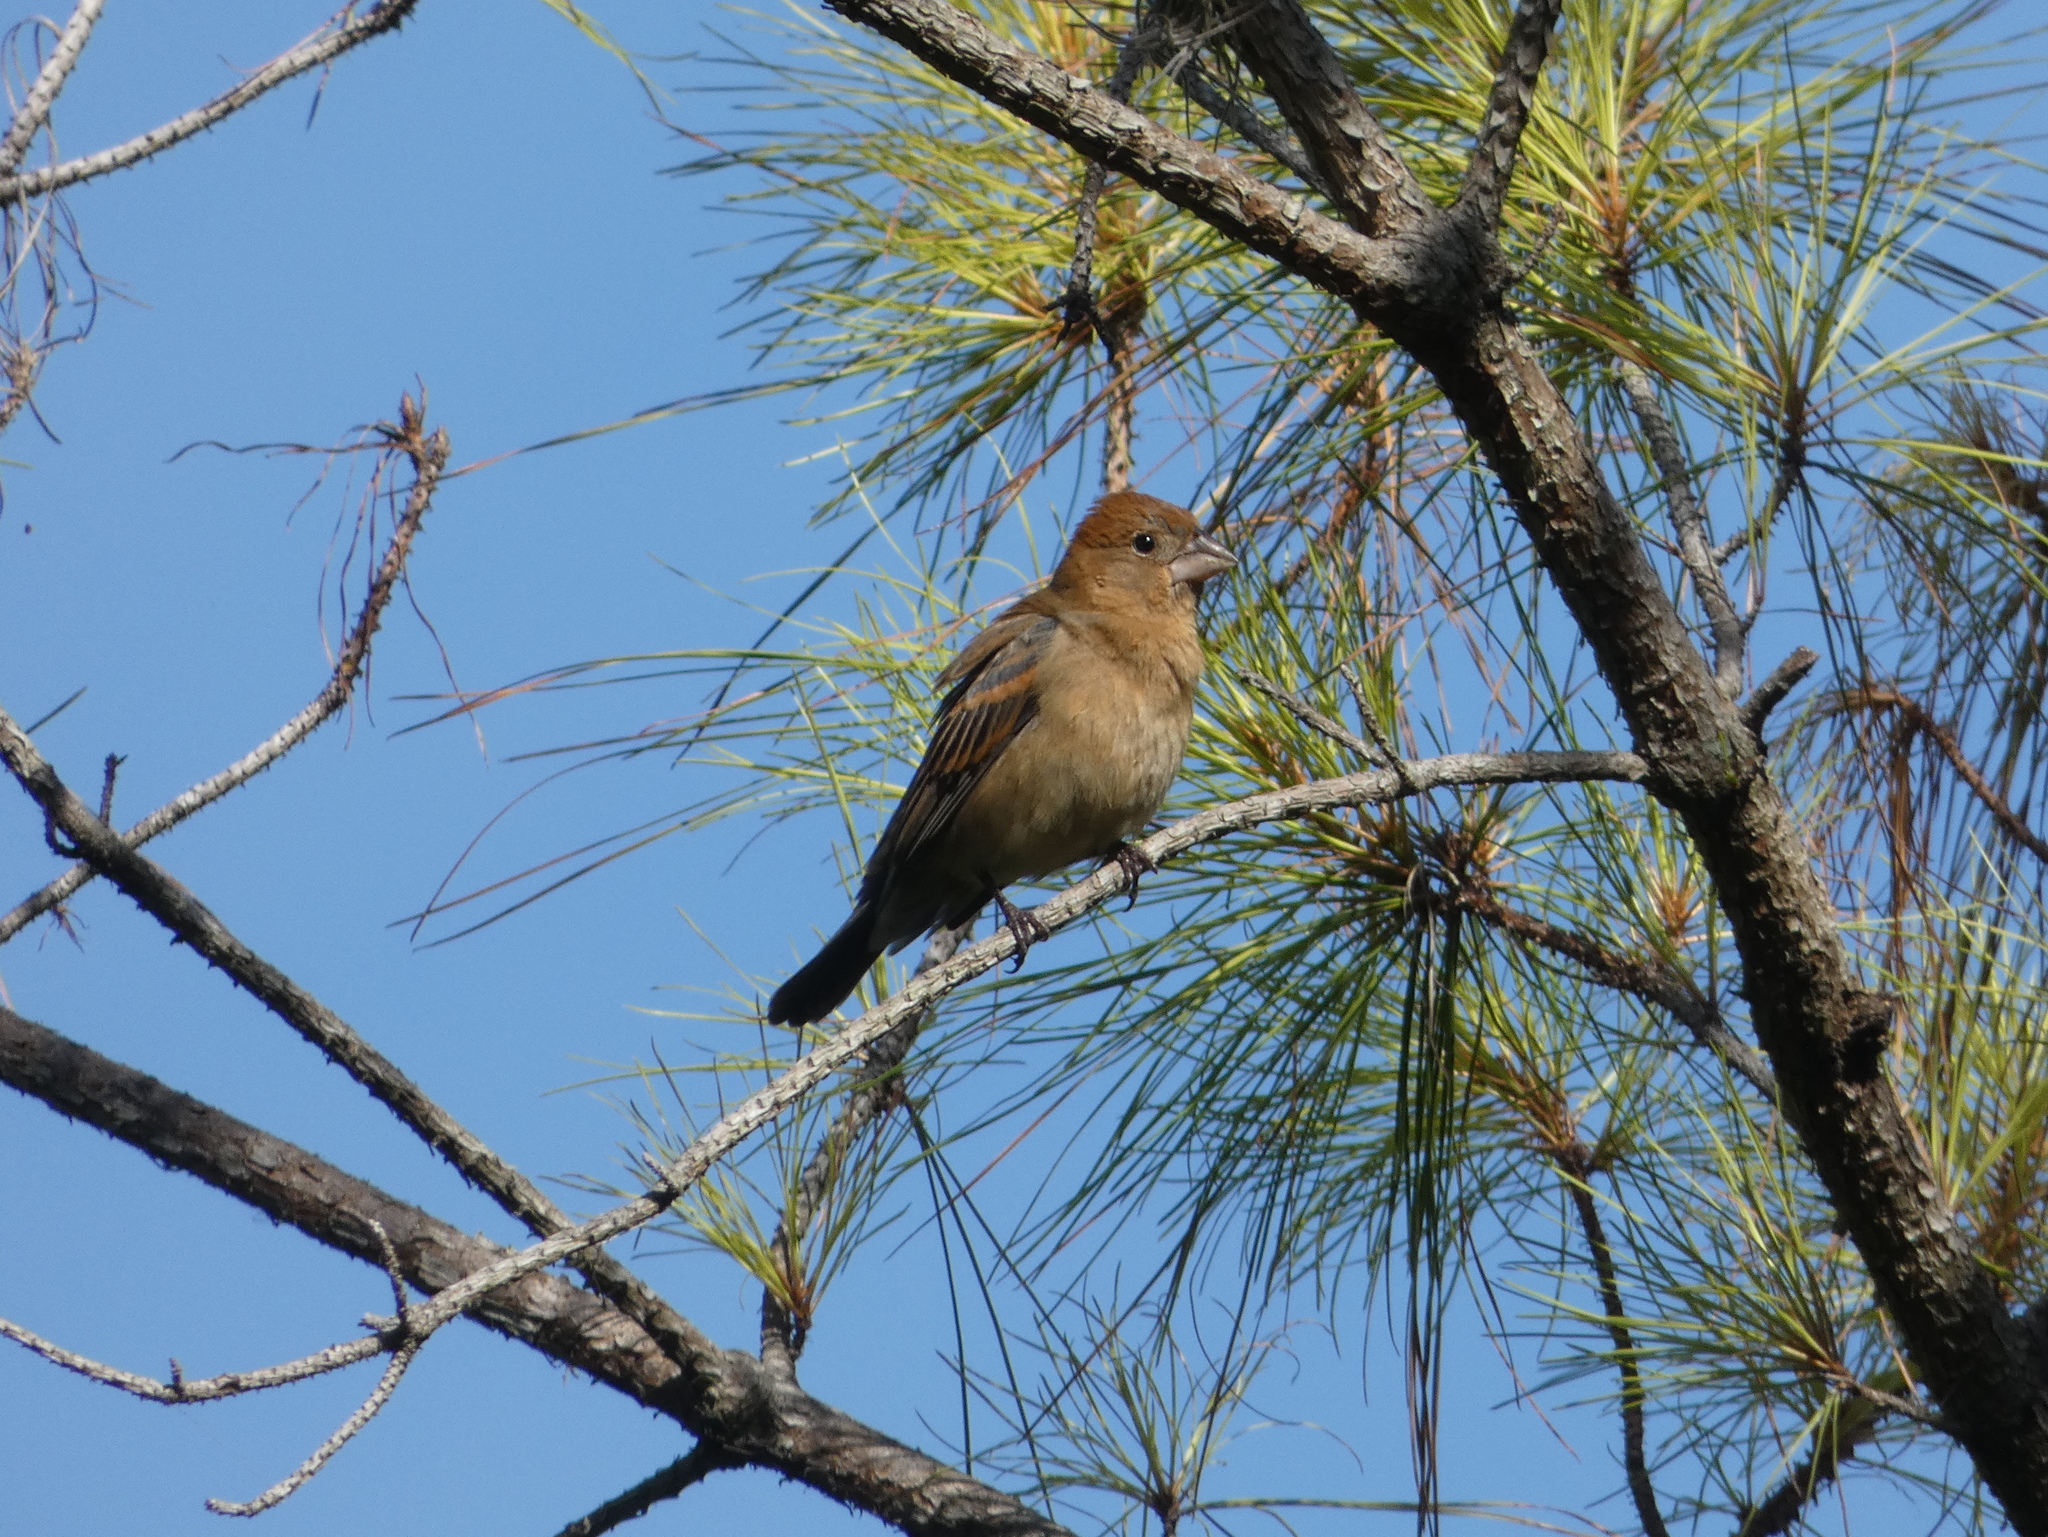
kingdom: Animalia
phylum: Chordata
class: Aves
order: Passeriformes
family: Cardinalidae
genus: Passerina
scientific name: Passerina caerulea
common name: Blue grosbeak
